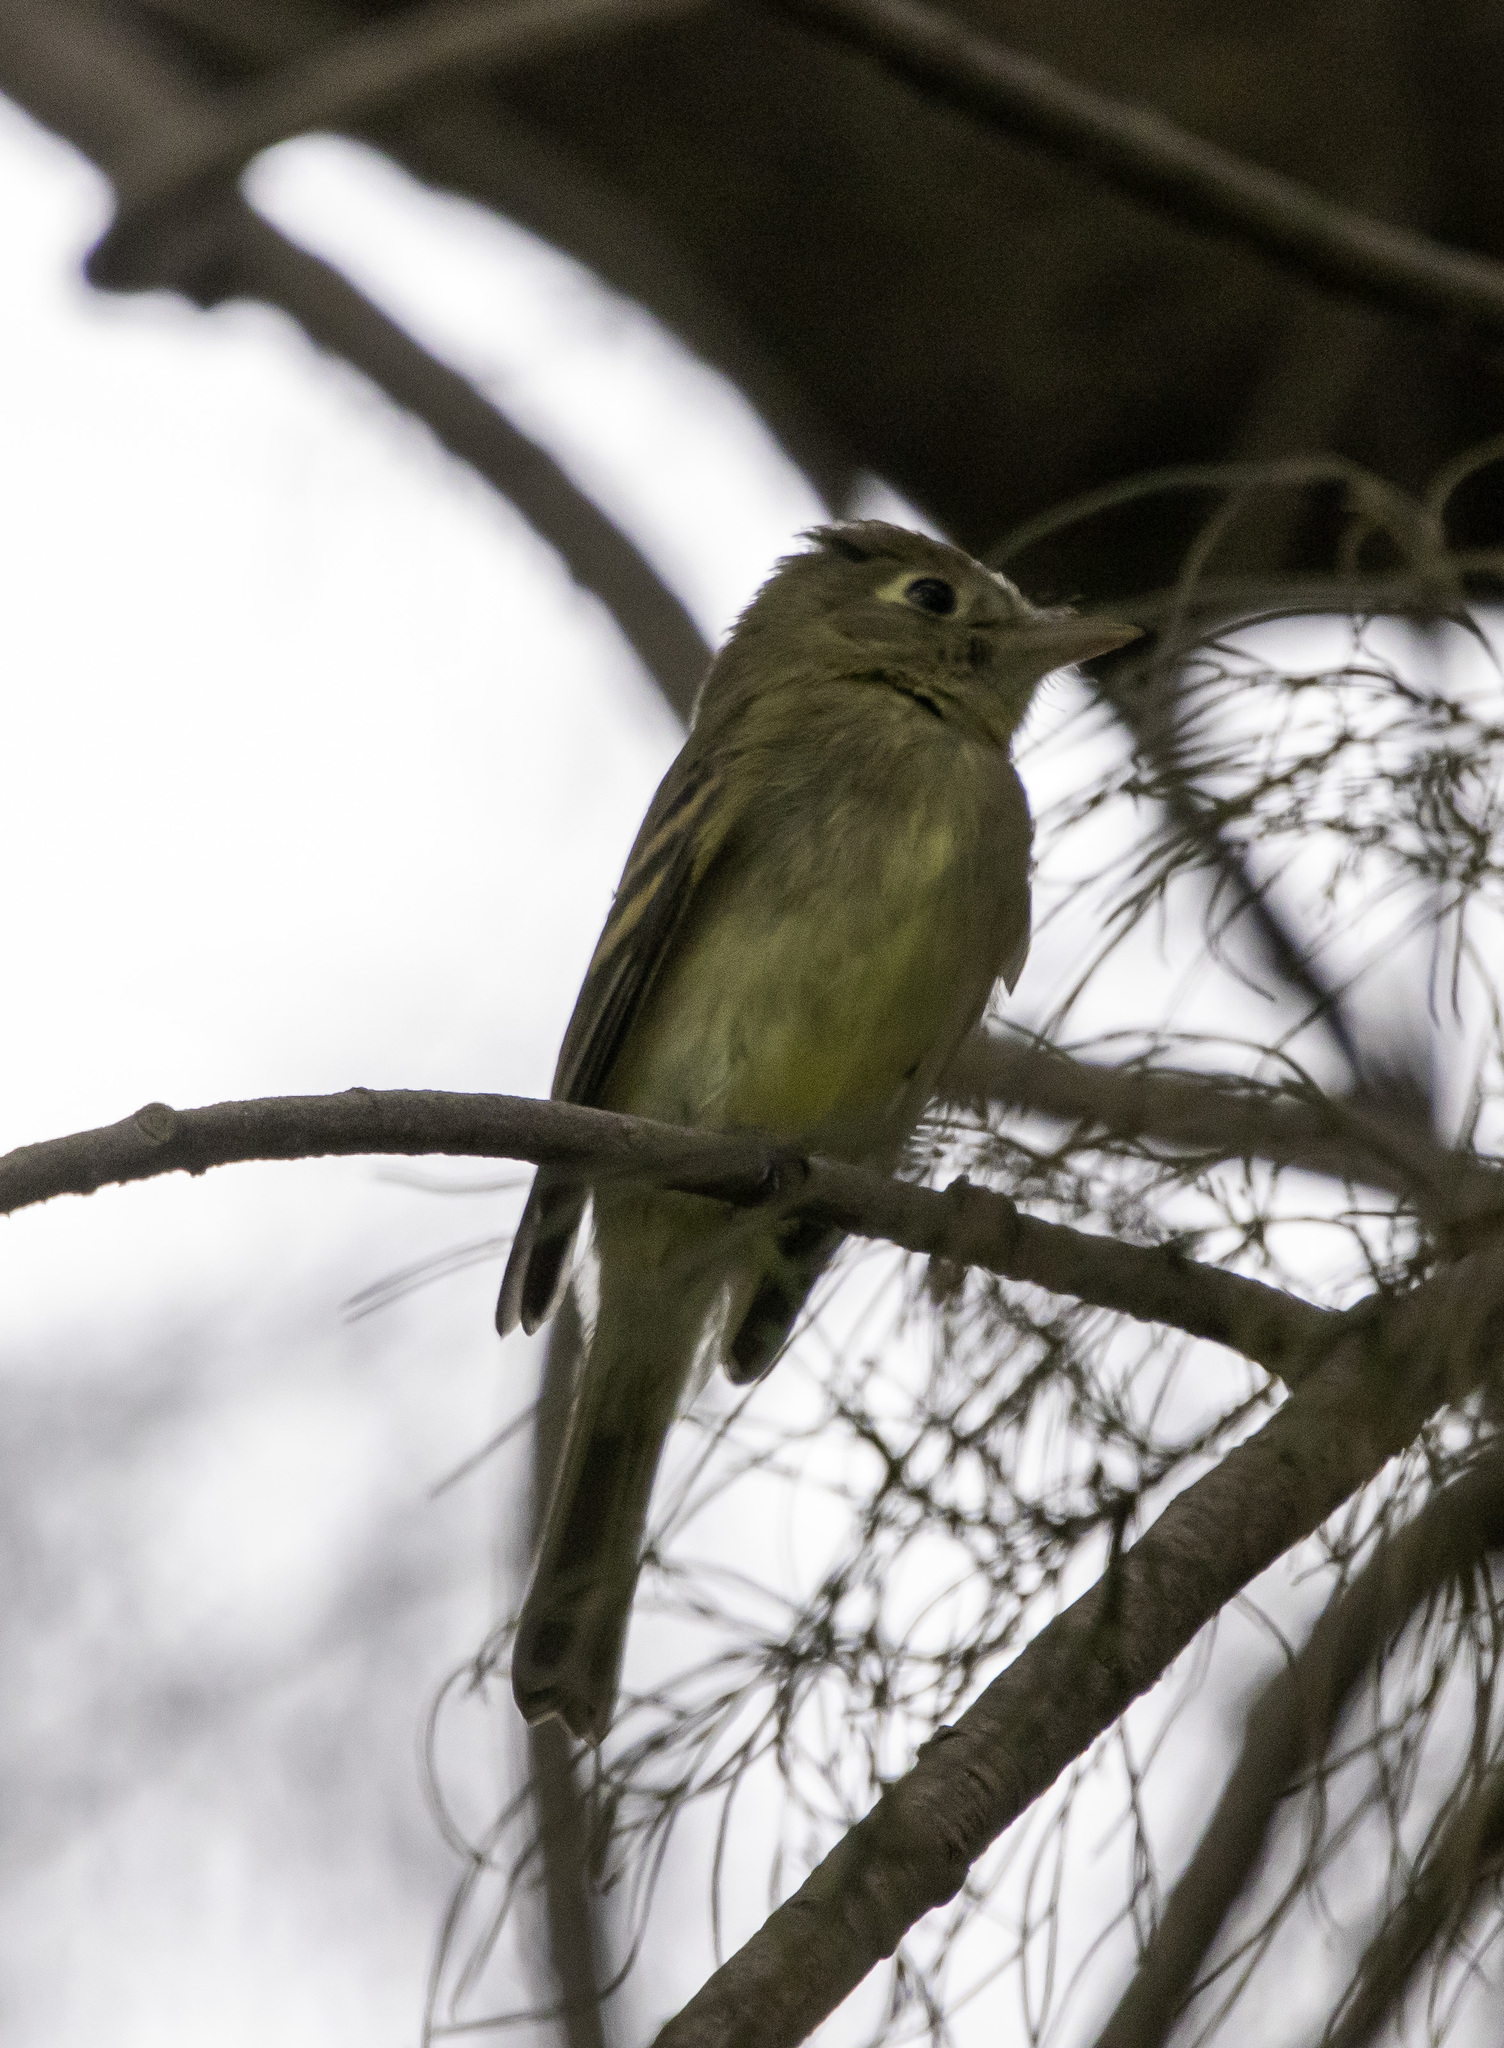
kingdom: Animalia
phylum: Chordata
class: Aves
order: Passeriformes
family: Tyrannidae
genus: Empidonax
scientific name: Empidonax difficilis
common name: Pacific-slope flycatcher
